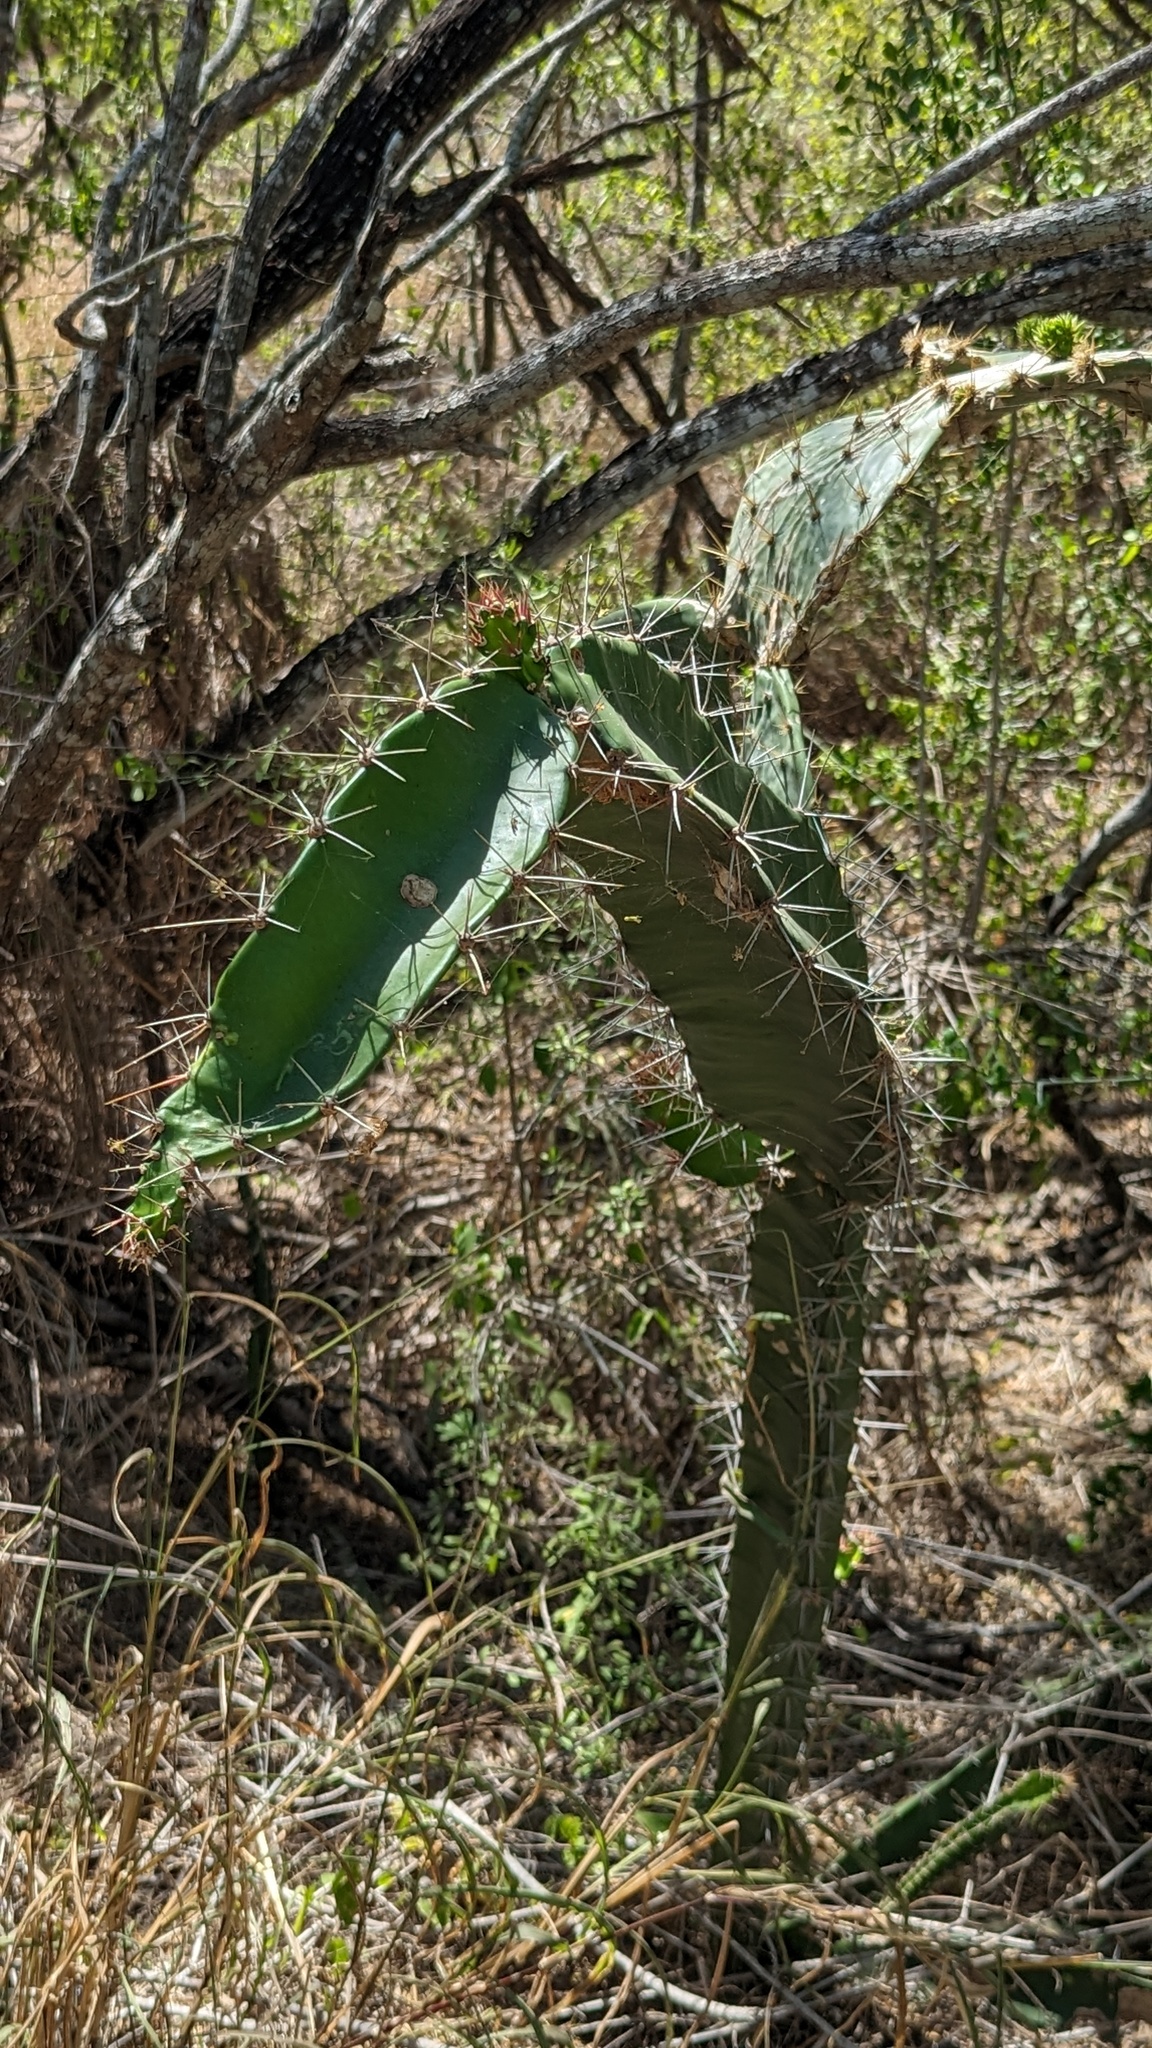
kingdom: Plantae
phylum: Tracheophyta
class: Magnoliopsida
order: Caryophyllales
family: Cactaceae
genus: Acanthocereus
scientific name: Acanthocereus tetragonus
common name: Triangle cactus
